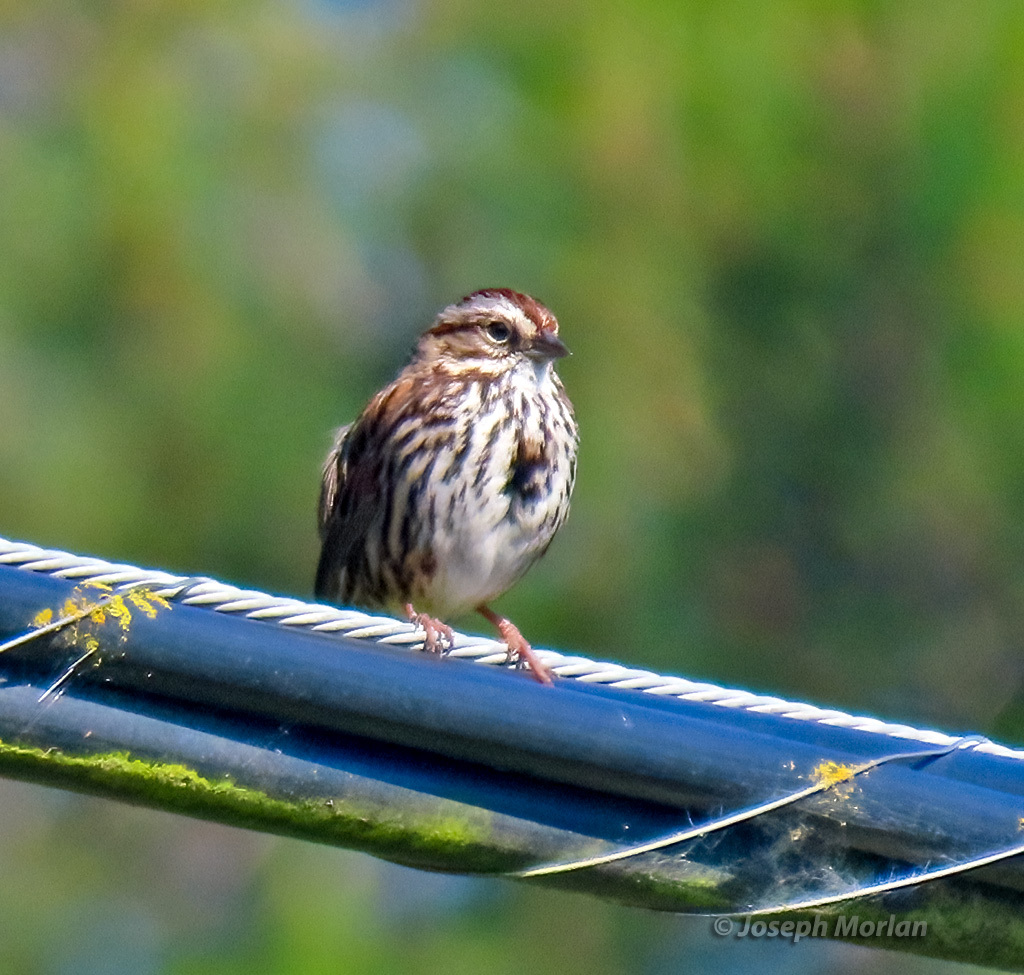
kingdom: Animalia
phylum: Chordata
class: Aves
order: Passeriformes
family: Passerellidae
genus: Melospiza
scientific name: Melospiza melodia
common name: Song sparrow
